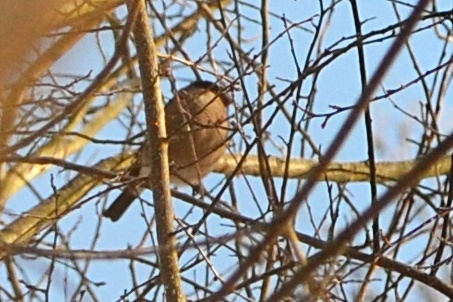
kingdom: Animalia
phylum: Chordata
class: Aves
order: Passeriformes
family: Fringillidae
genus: Pyrrhula
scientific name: Pyrrhula pyrrhula
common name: Eurasian bullfinch
